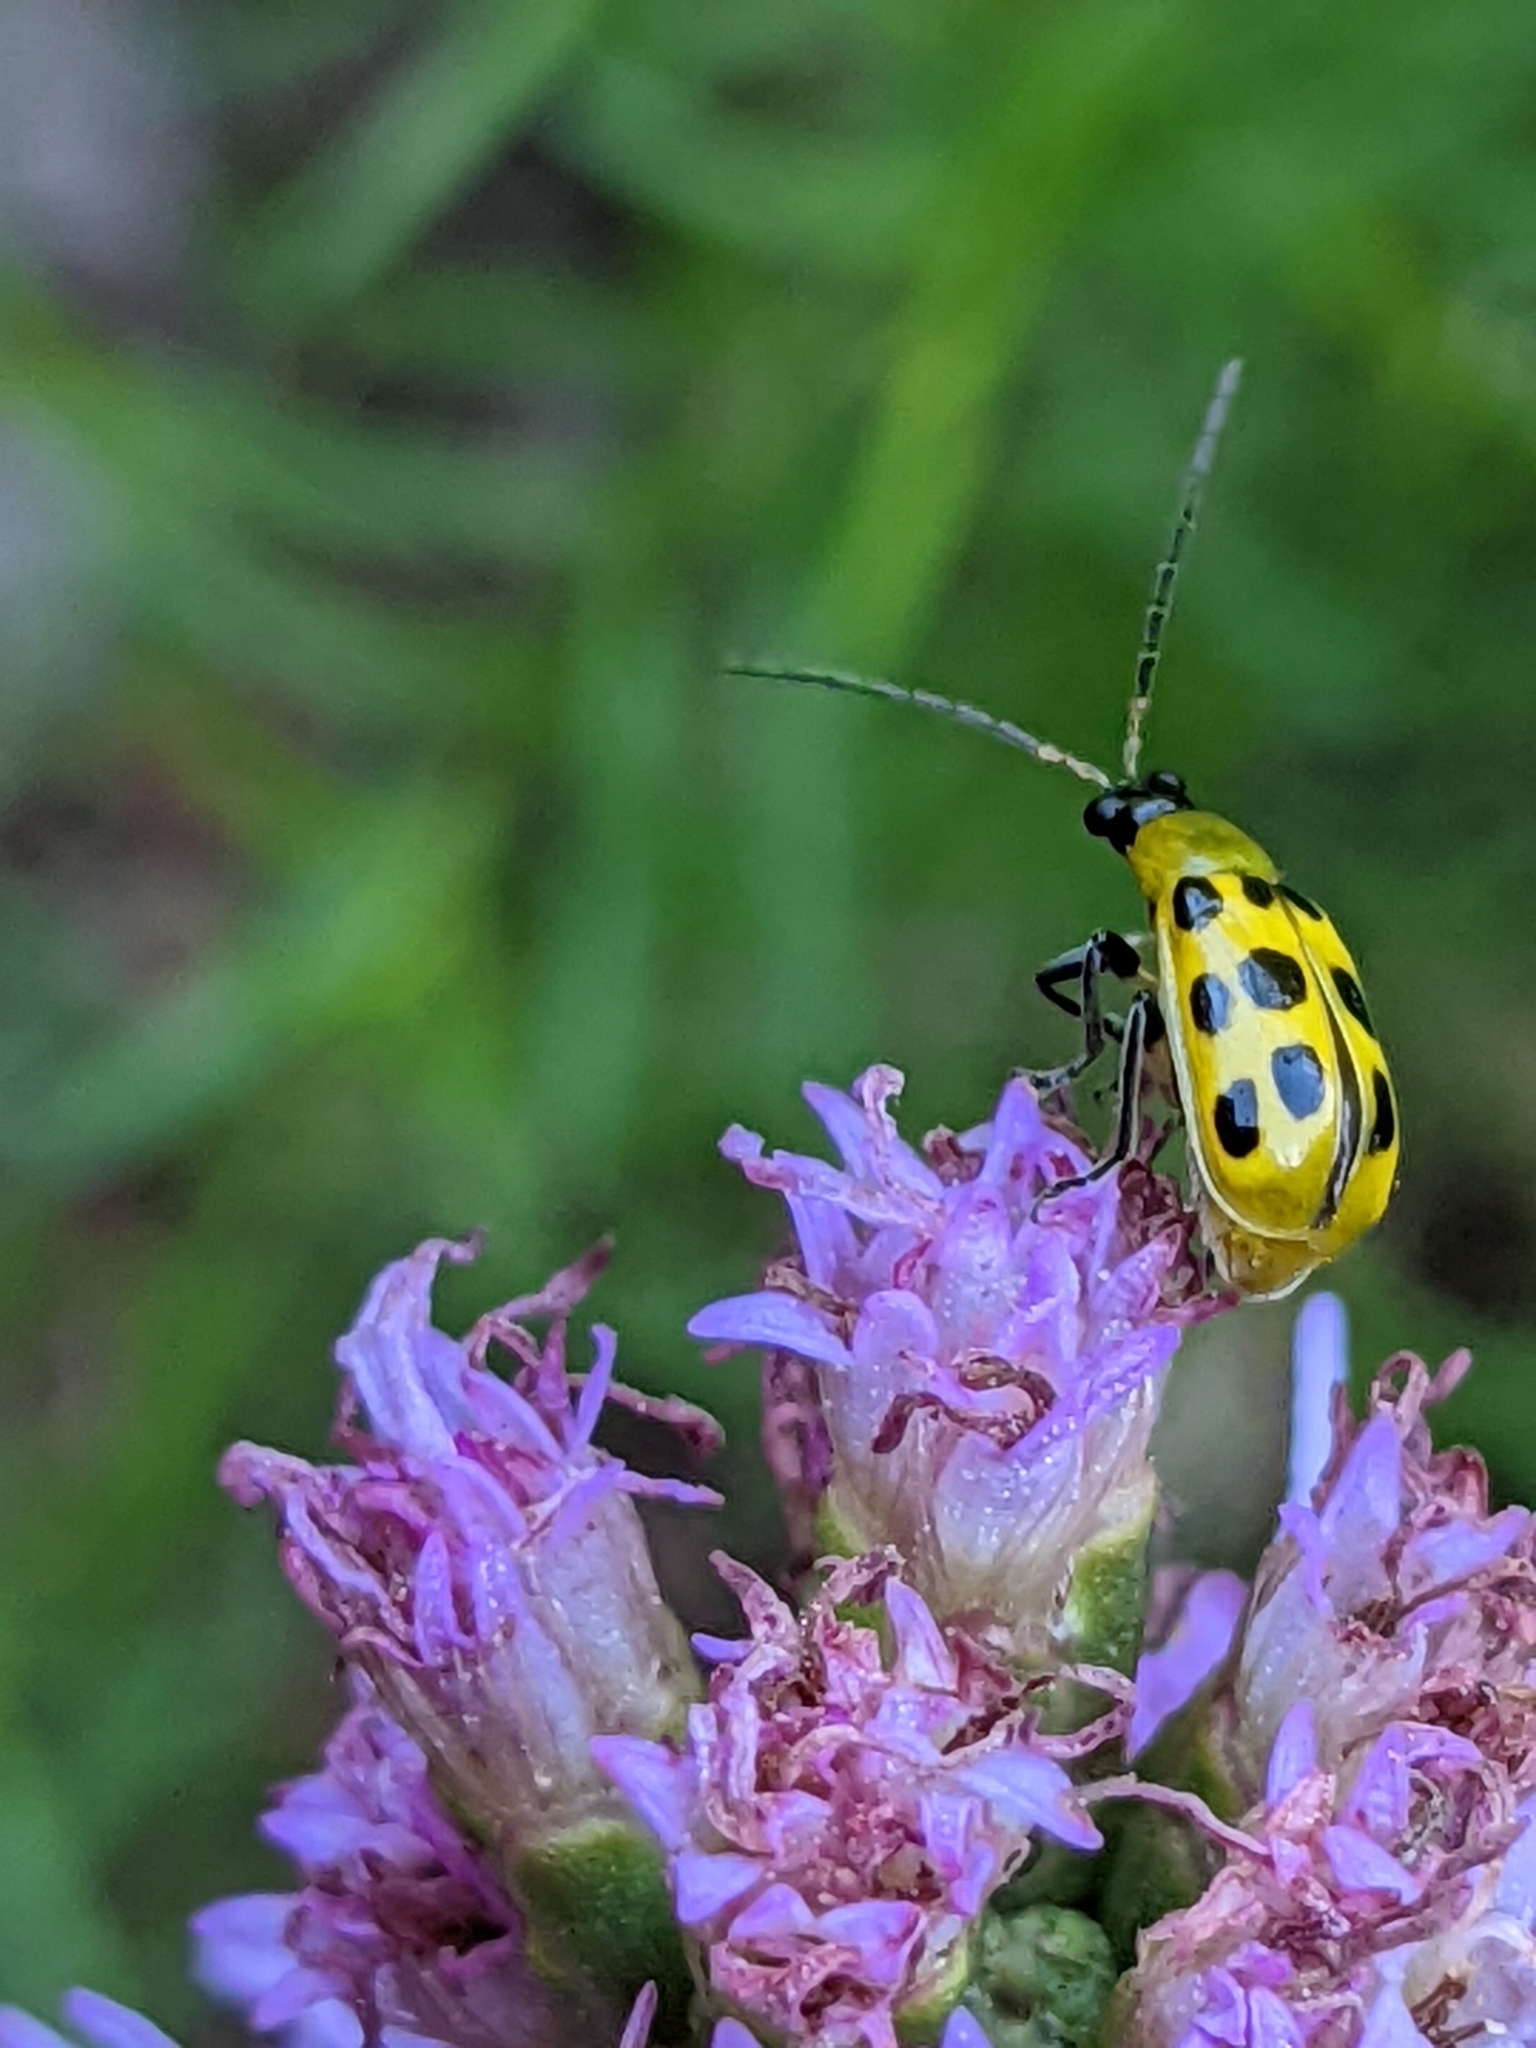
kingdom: Animalia
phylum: Arthropoda
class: Insecta
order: Coleoptera
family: Chrysomelidae
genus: Diabrotica
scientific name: Diabrotica undecimpunctata
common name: Spotted cucumber beetle
